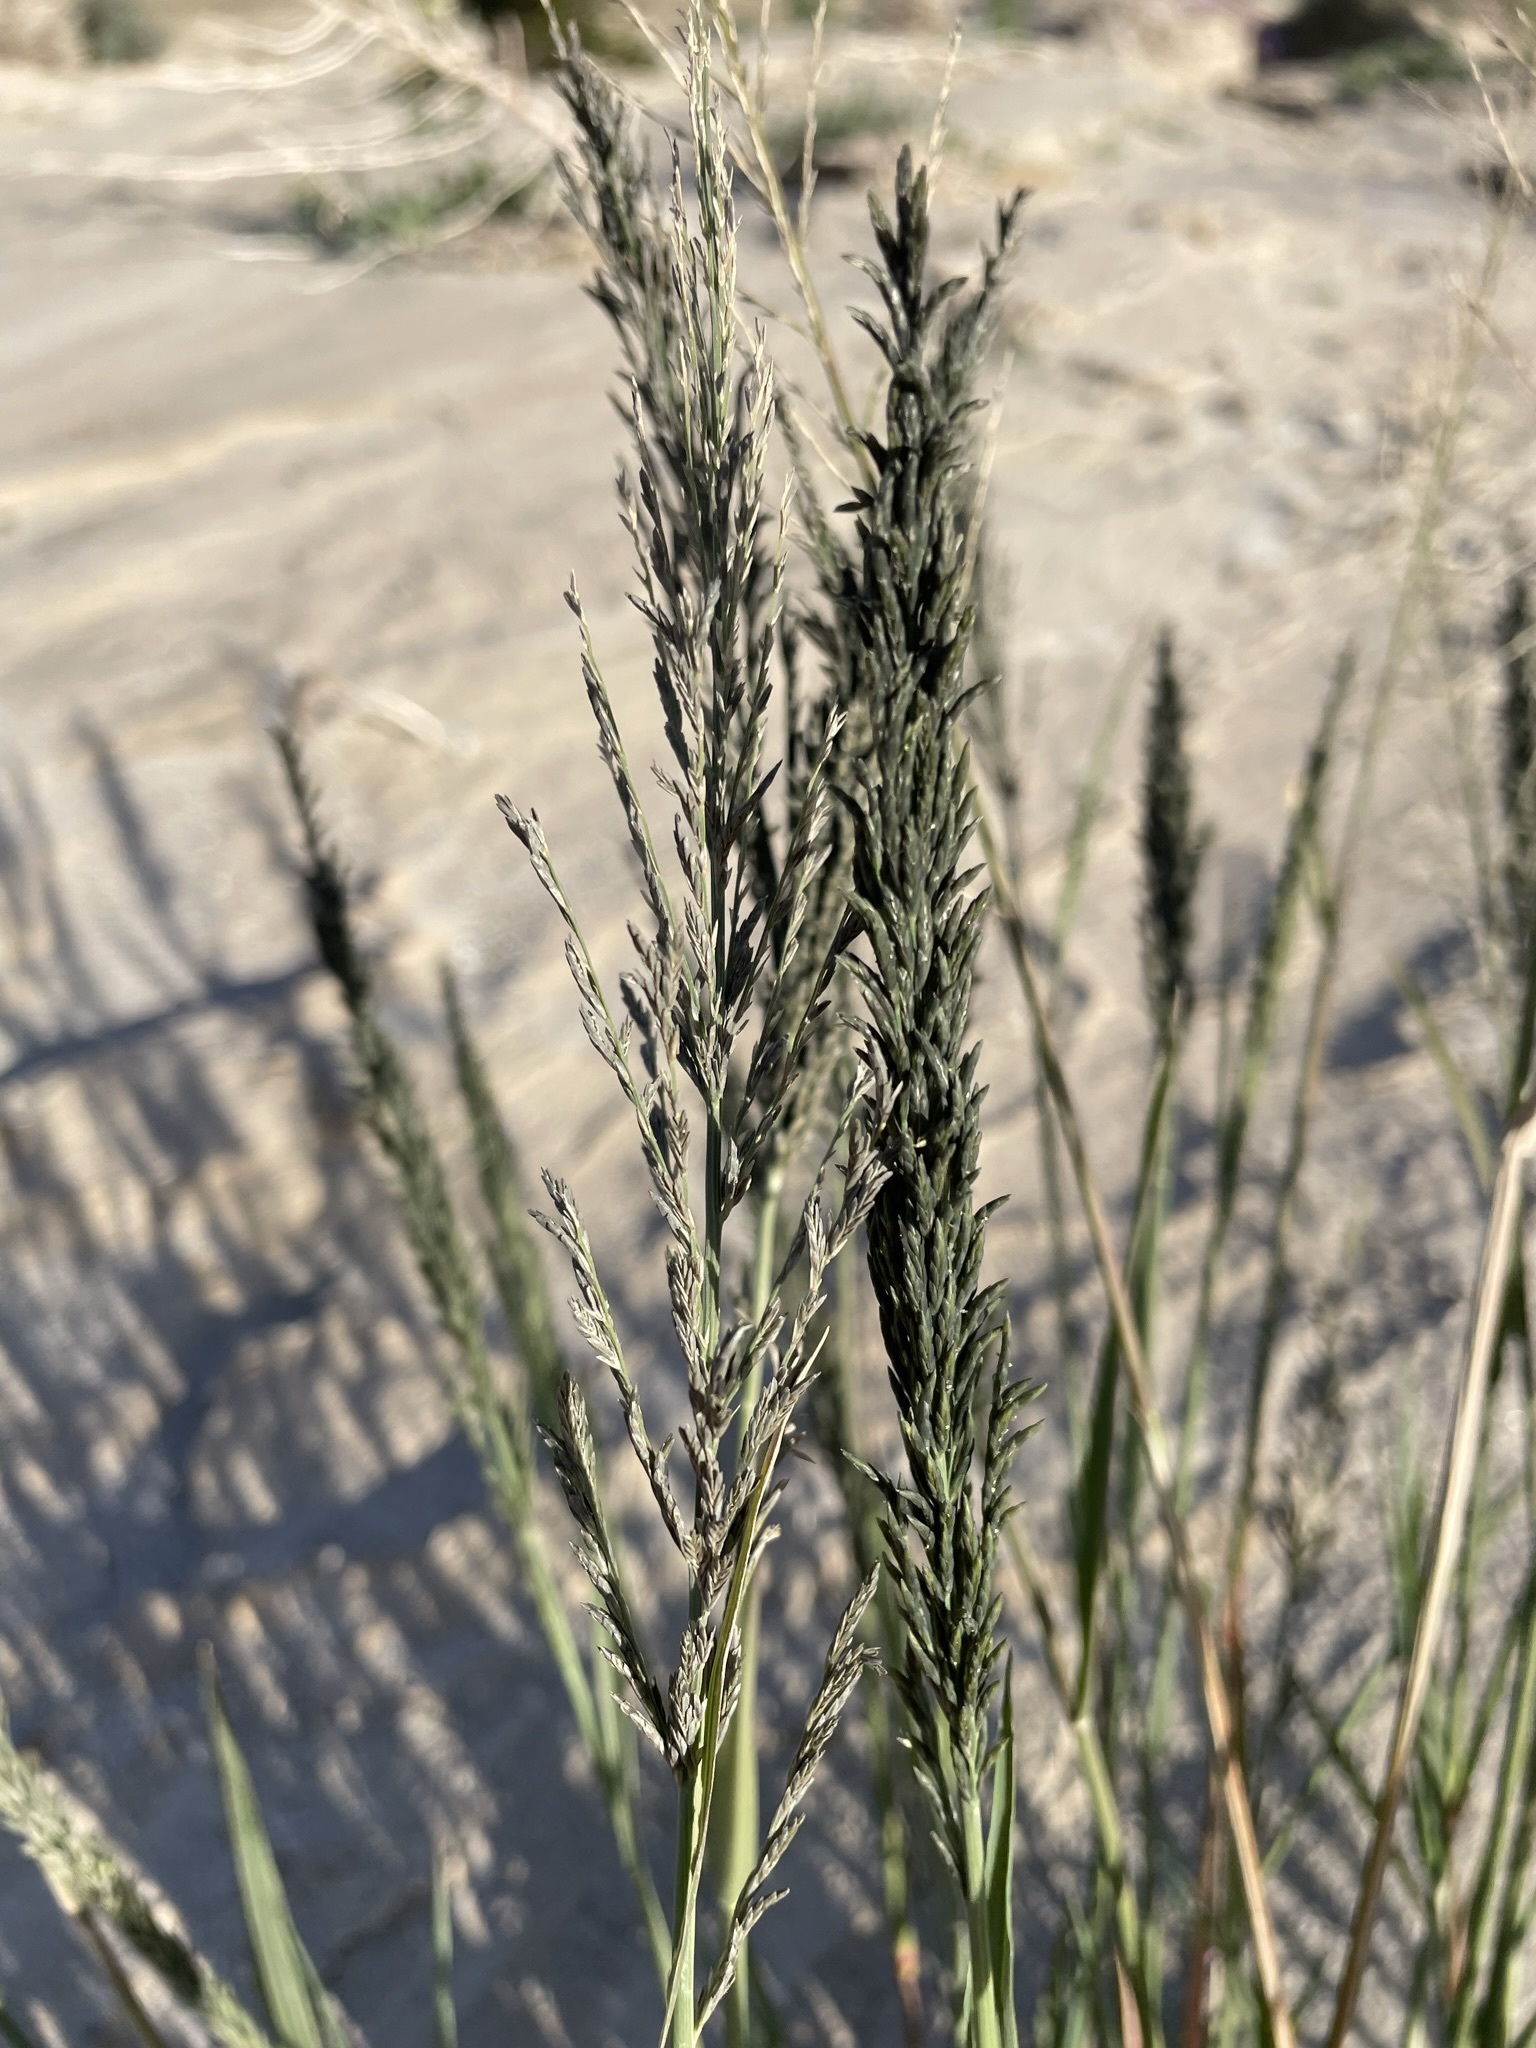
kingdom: Plantae
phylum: Tracheophyta
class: Liliopsida
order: Poales
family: Poaceae
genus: Diplachne
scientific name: Diplachne fusca
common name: Brown beetle grass
